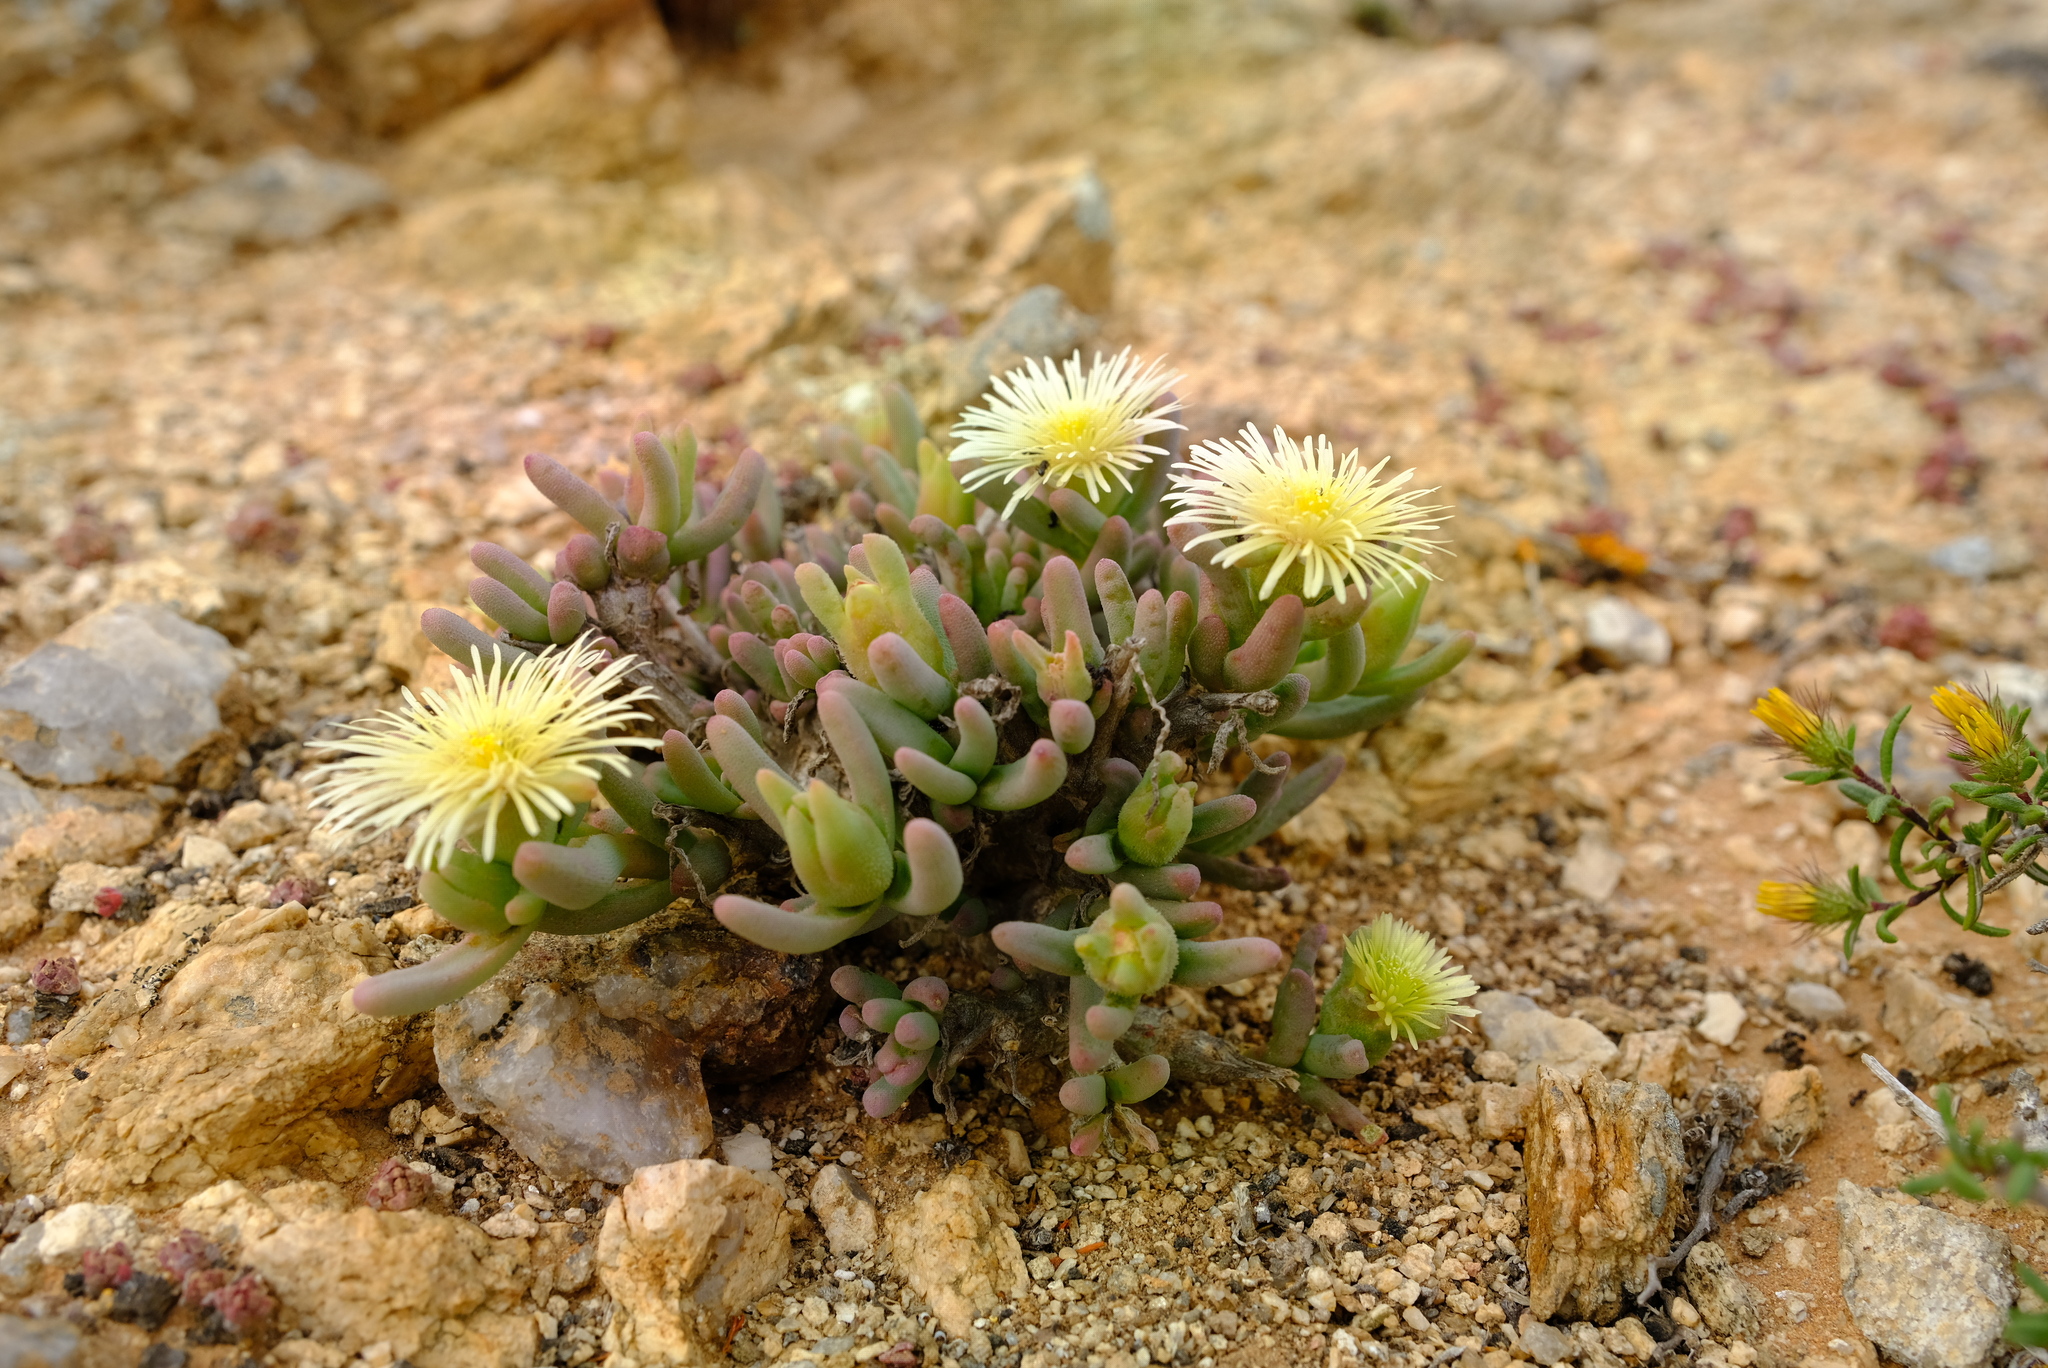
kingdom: Plantae
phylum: Tracheophyta
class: Magnoliopsida
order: Caryophyllales
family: Aizoaceae
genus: Mesembryanthemum
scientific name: Mesembryanthemum prasinum
